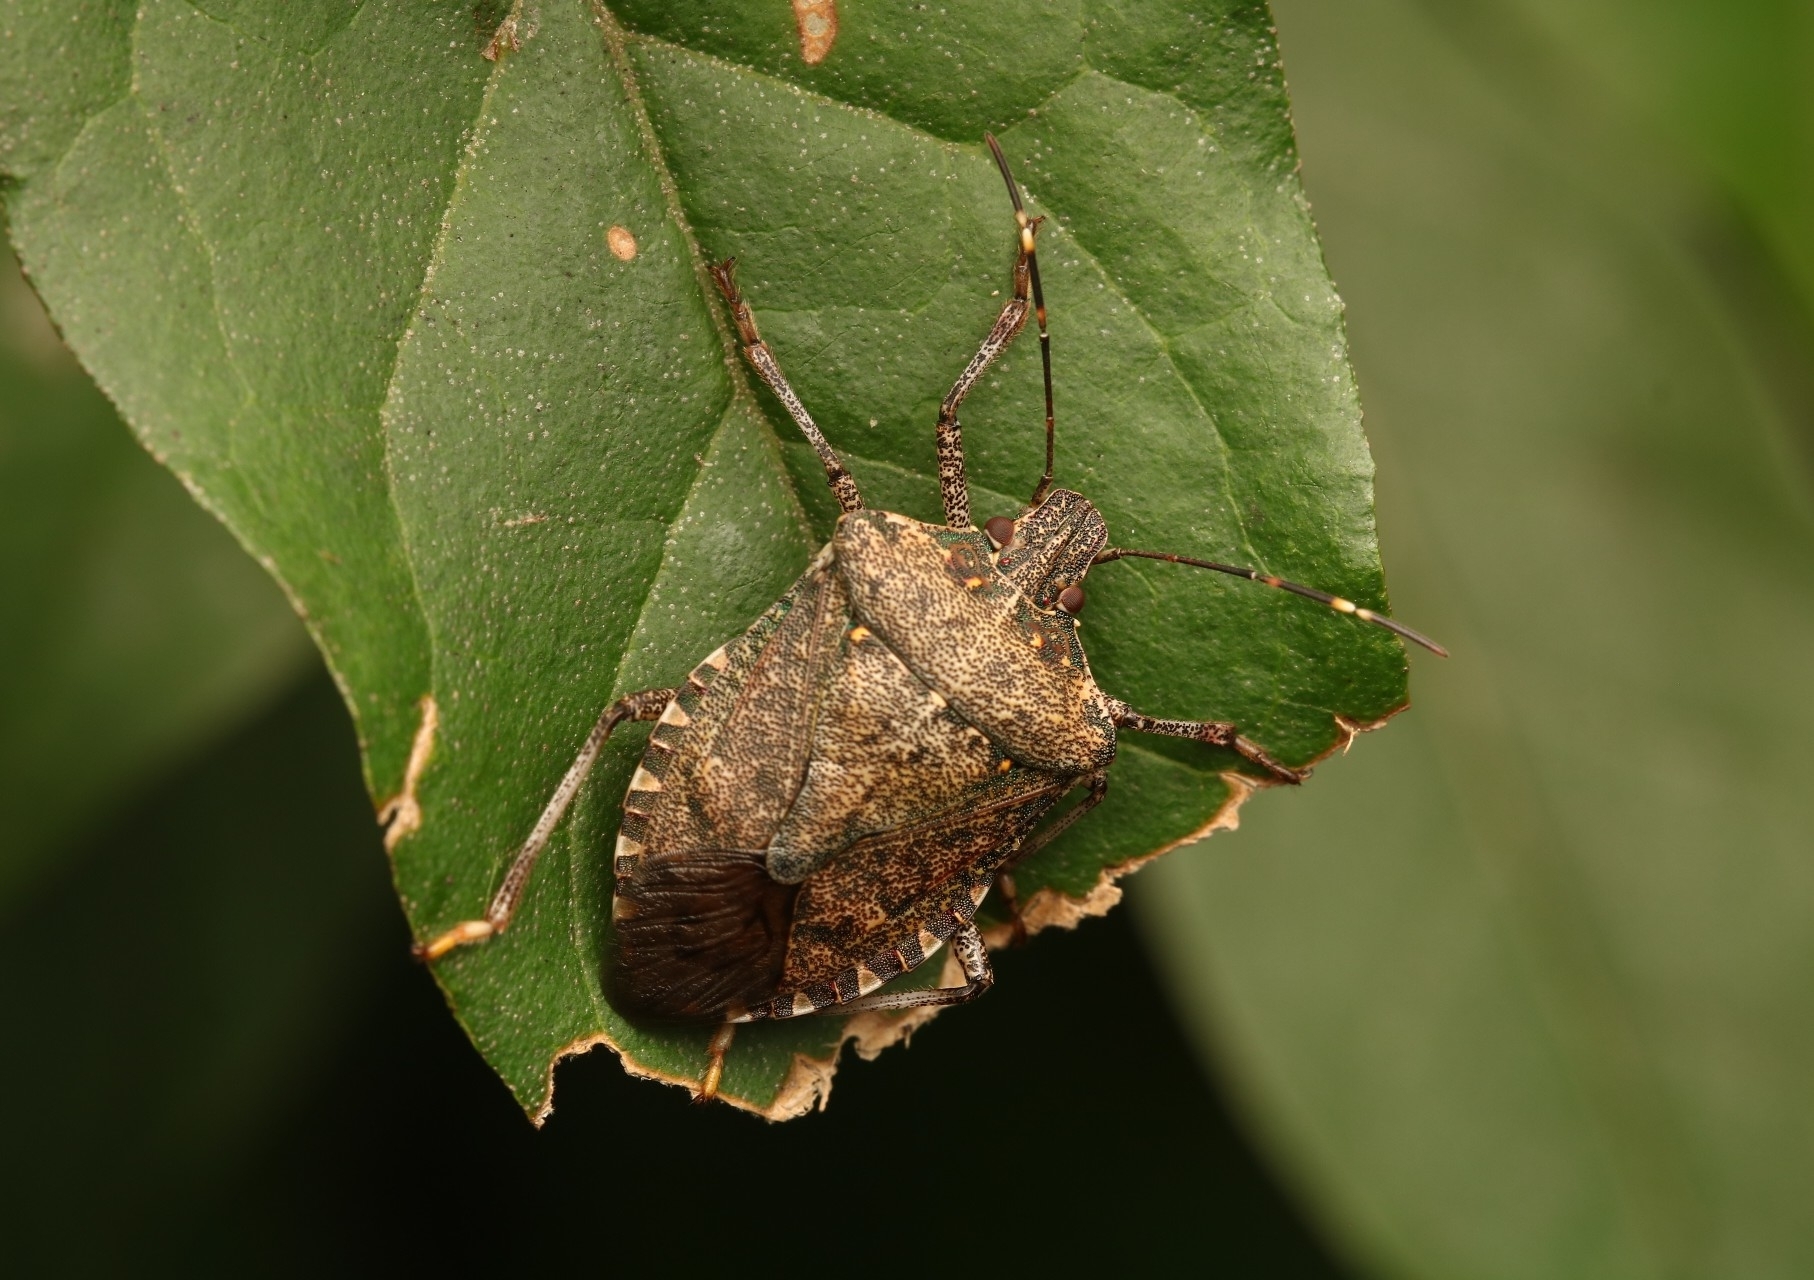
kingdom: Animalia
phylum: Arthropoda
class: Insecta
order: Hemiptera
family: Pentatomidae
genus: Halyomorpha
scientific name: Halyomorpha halys
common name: Brown marmorated stink bug
